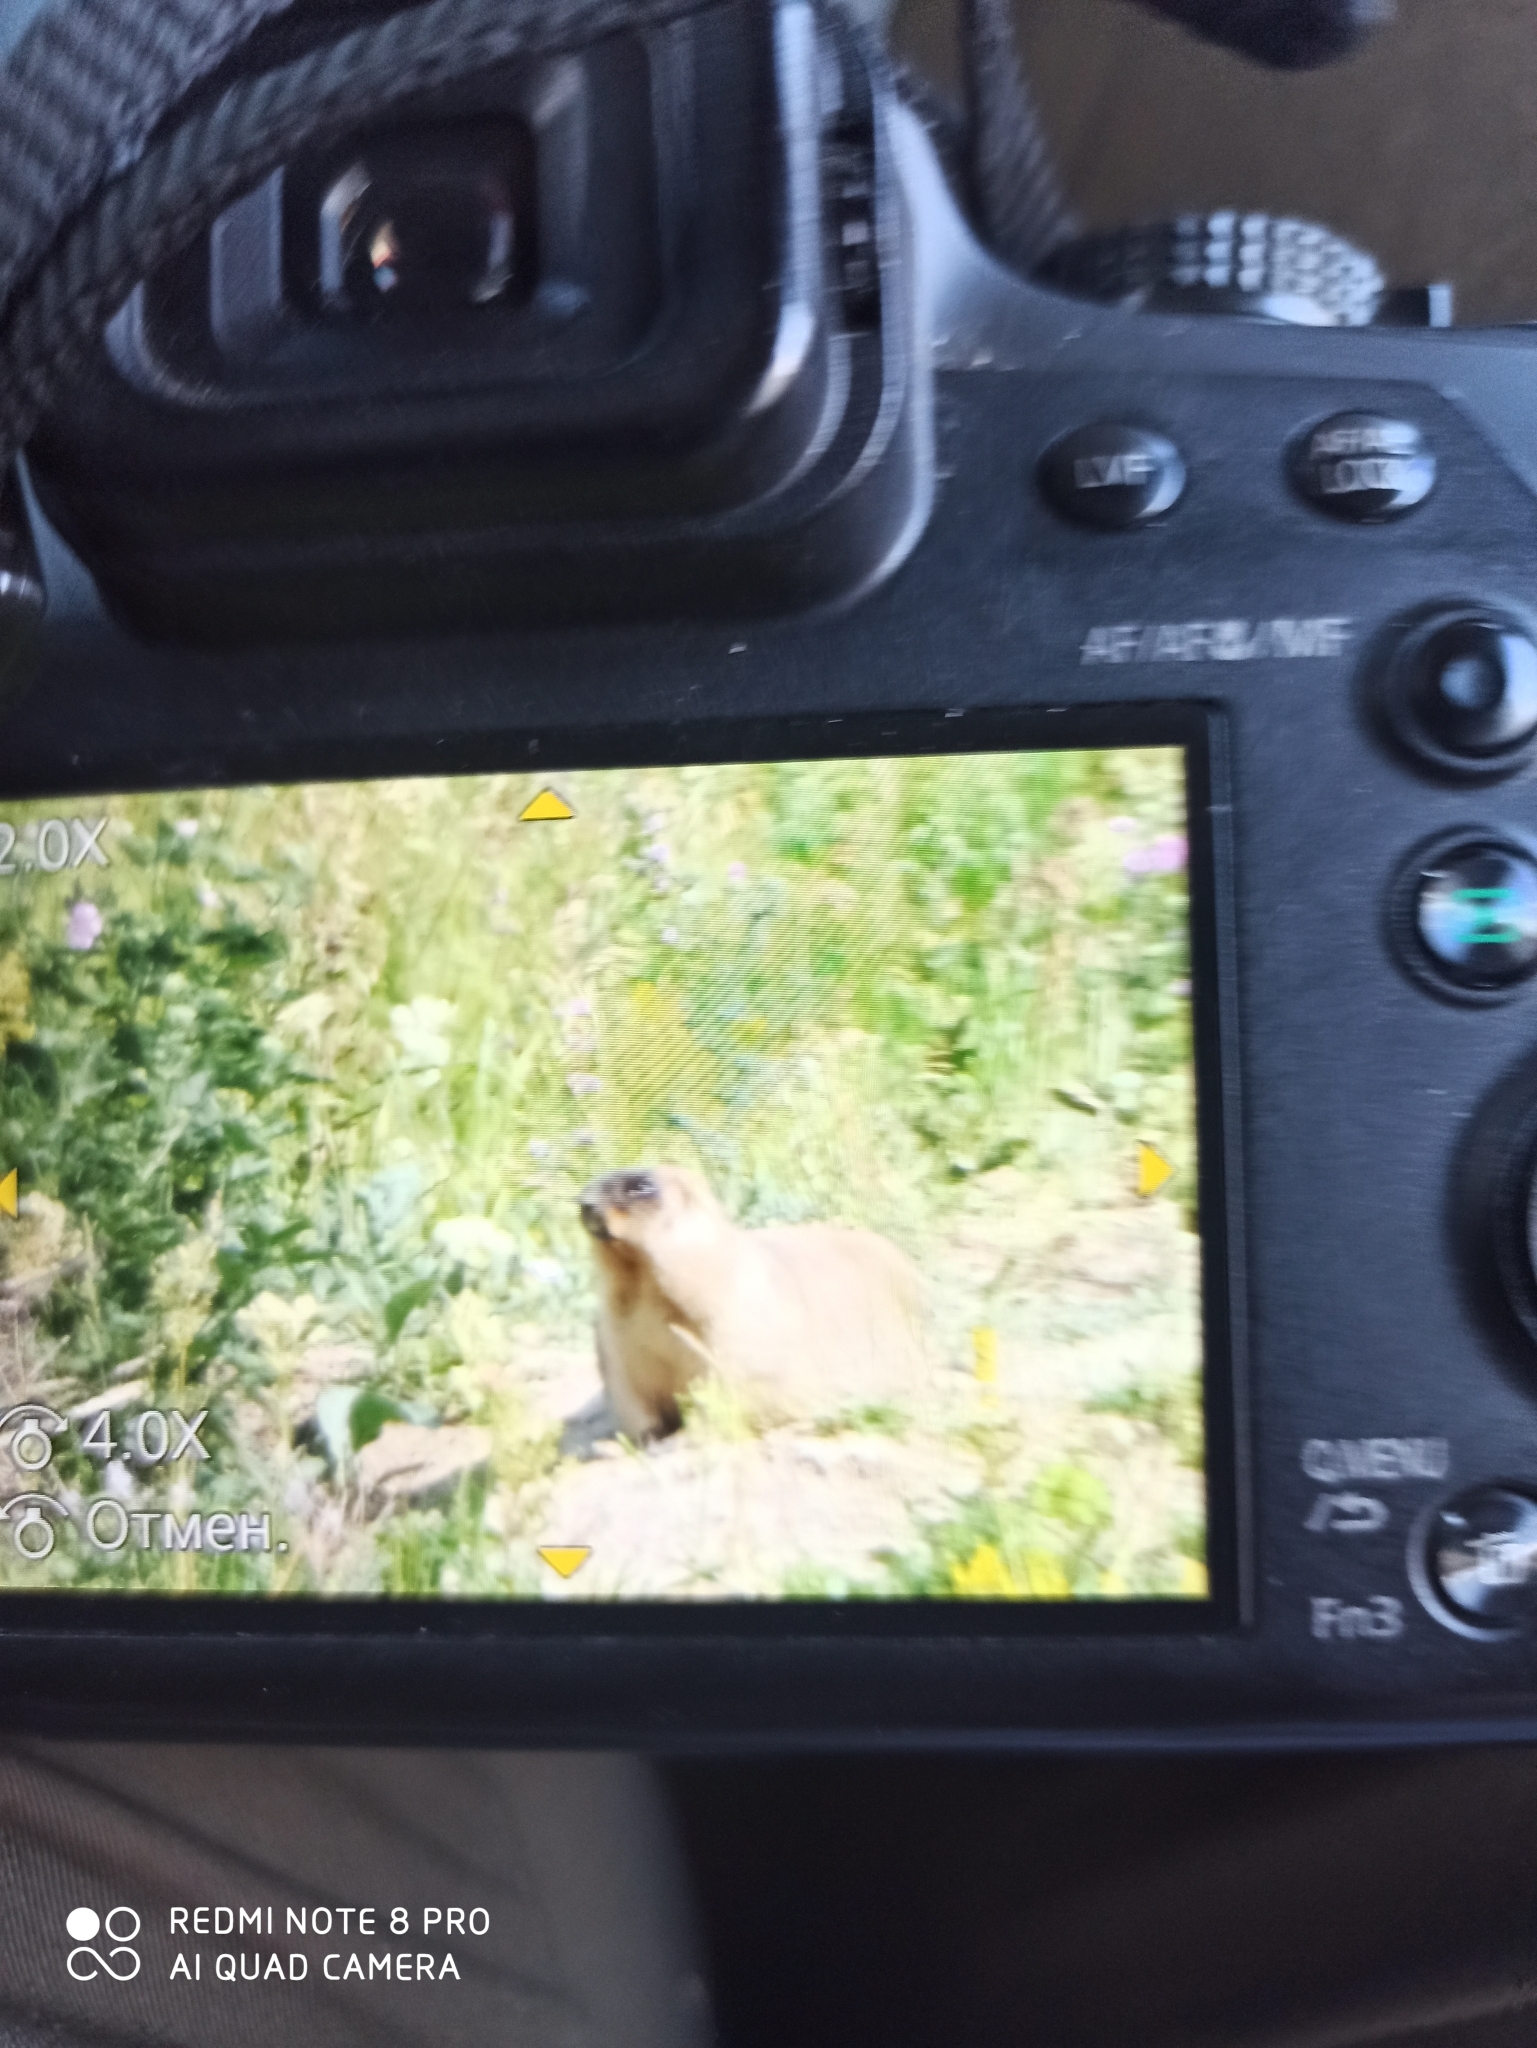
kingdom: Animalia
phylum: Chordata
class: Mammalia
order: Rodentia
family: Sciuridae
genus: Marmota
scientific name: Marmota bobak
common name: Bobak marmot
